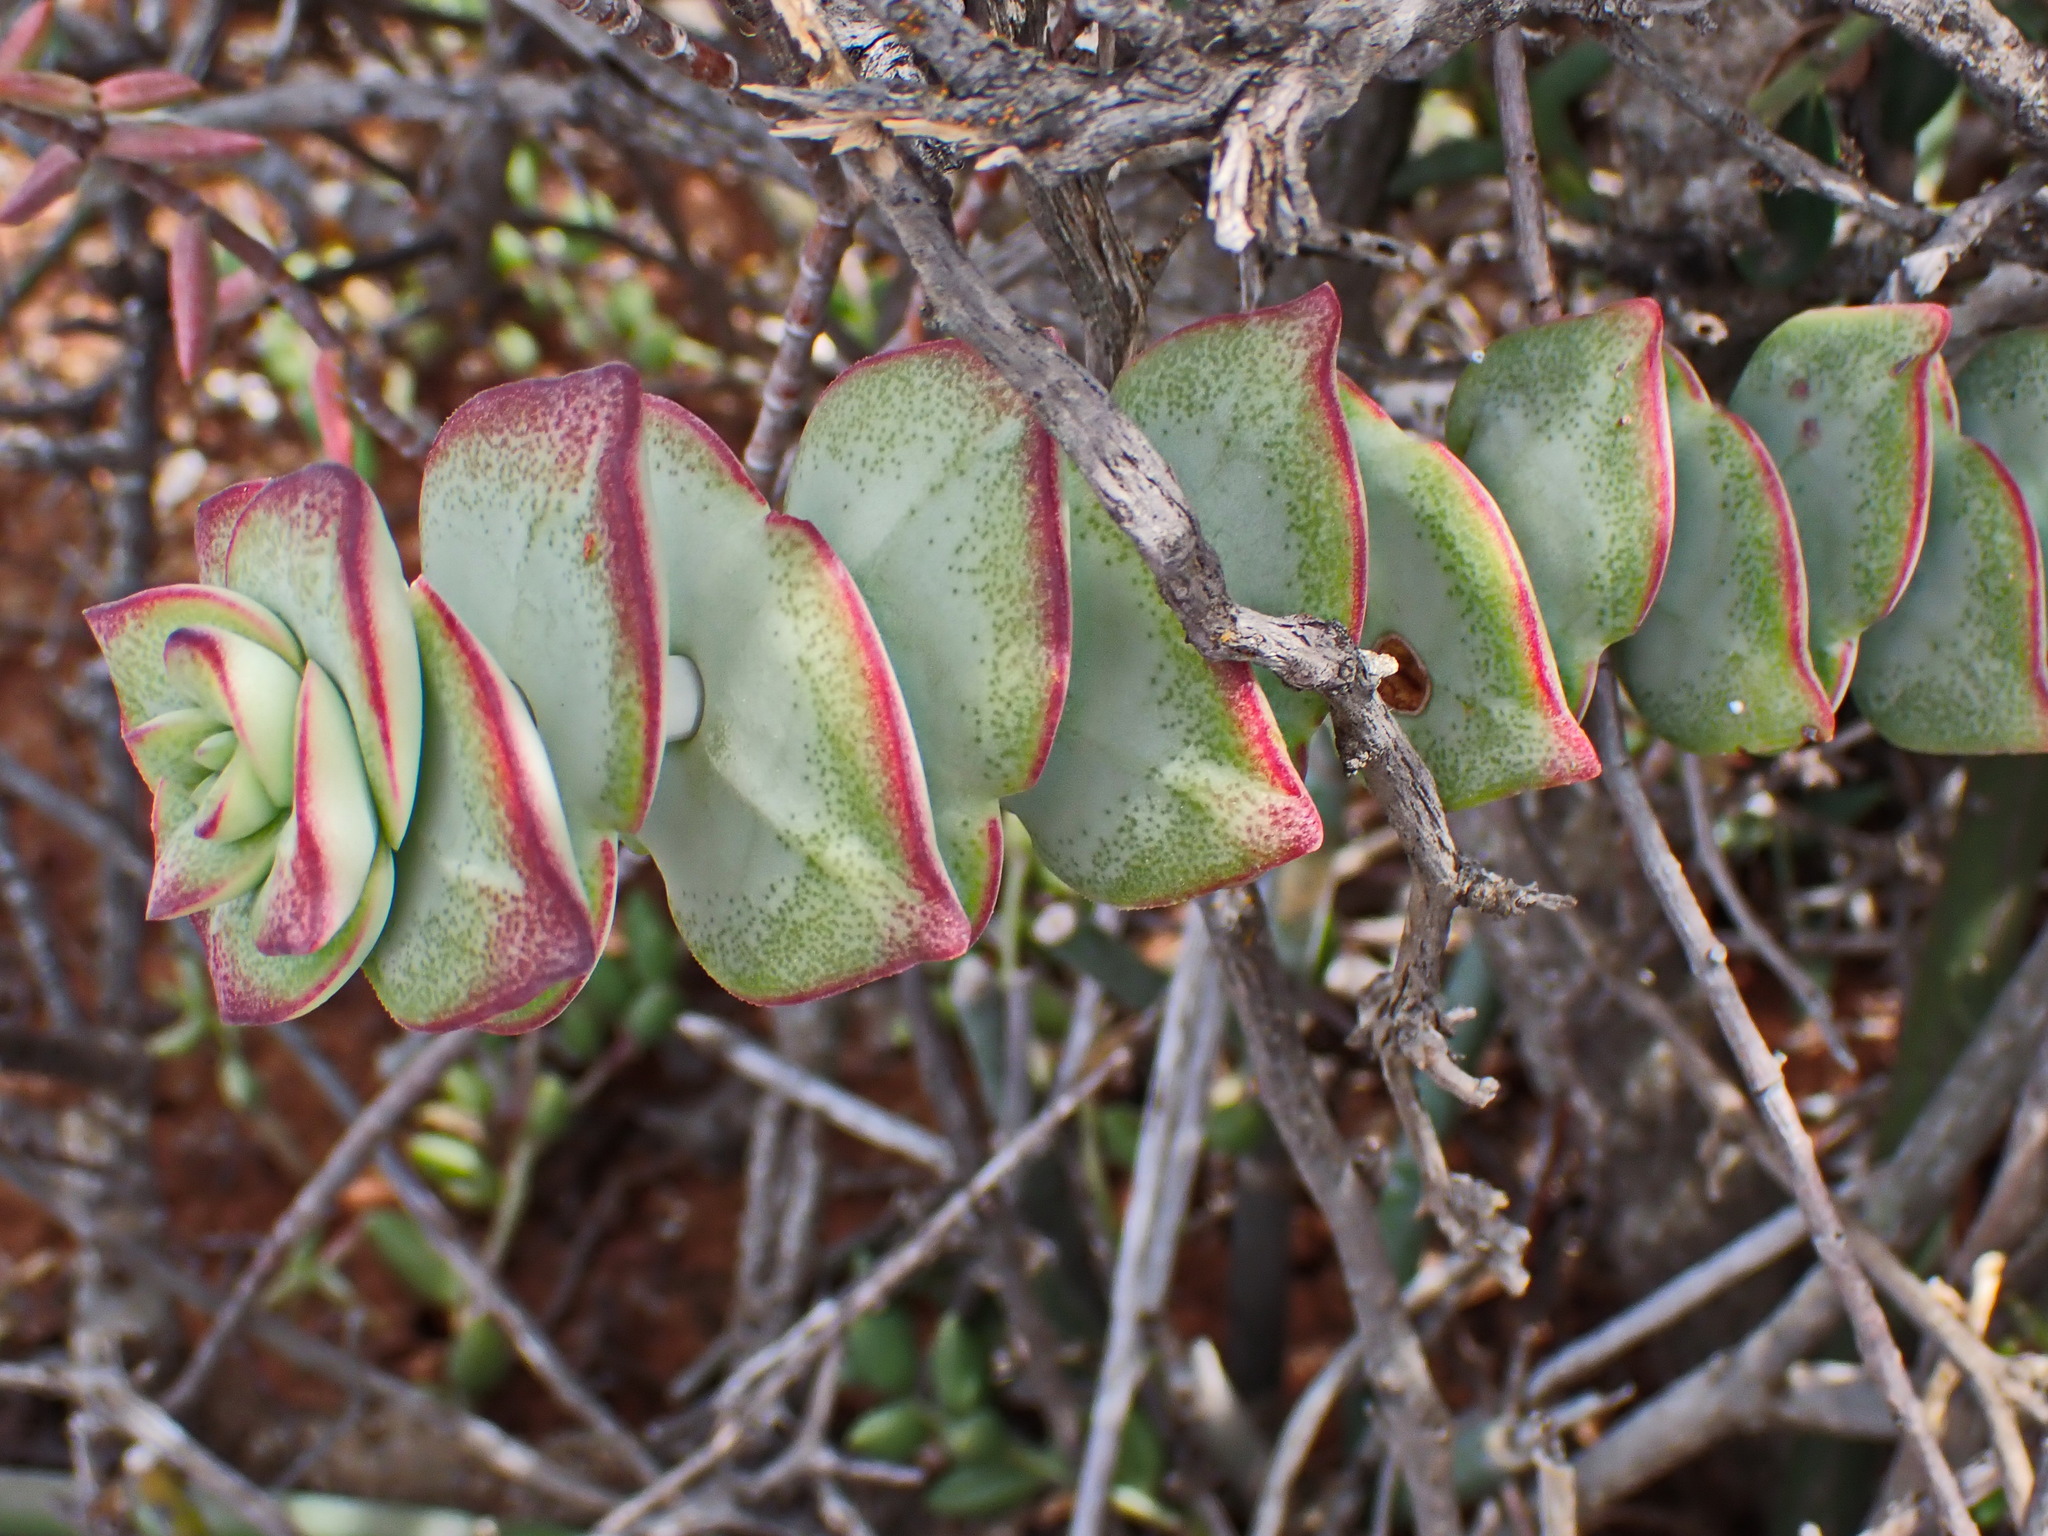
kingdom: Plantae
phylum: Tracheophyta
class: Magnoliopsida
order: Saxifragales
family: Crassulaceae
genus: Crassula
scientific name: Crassula rupestris
